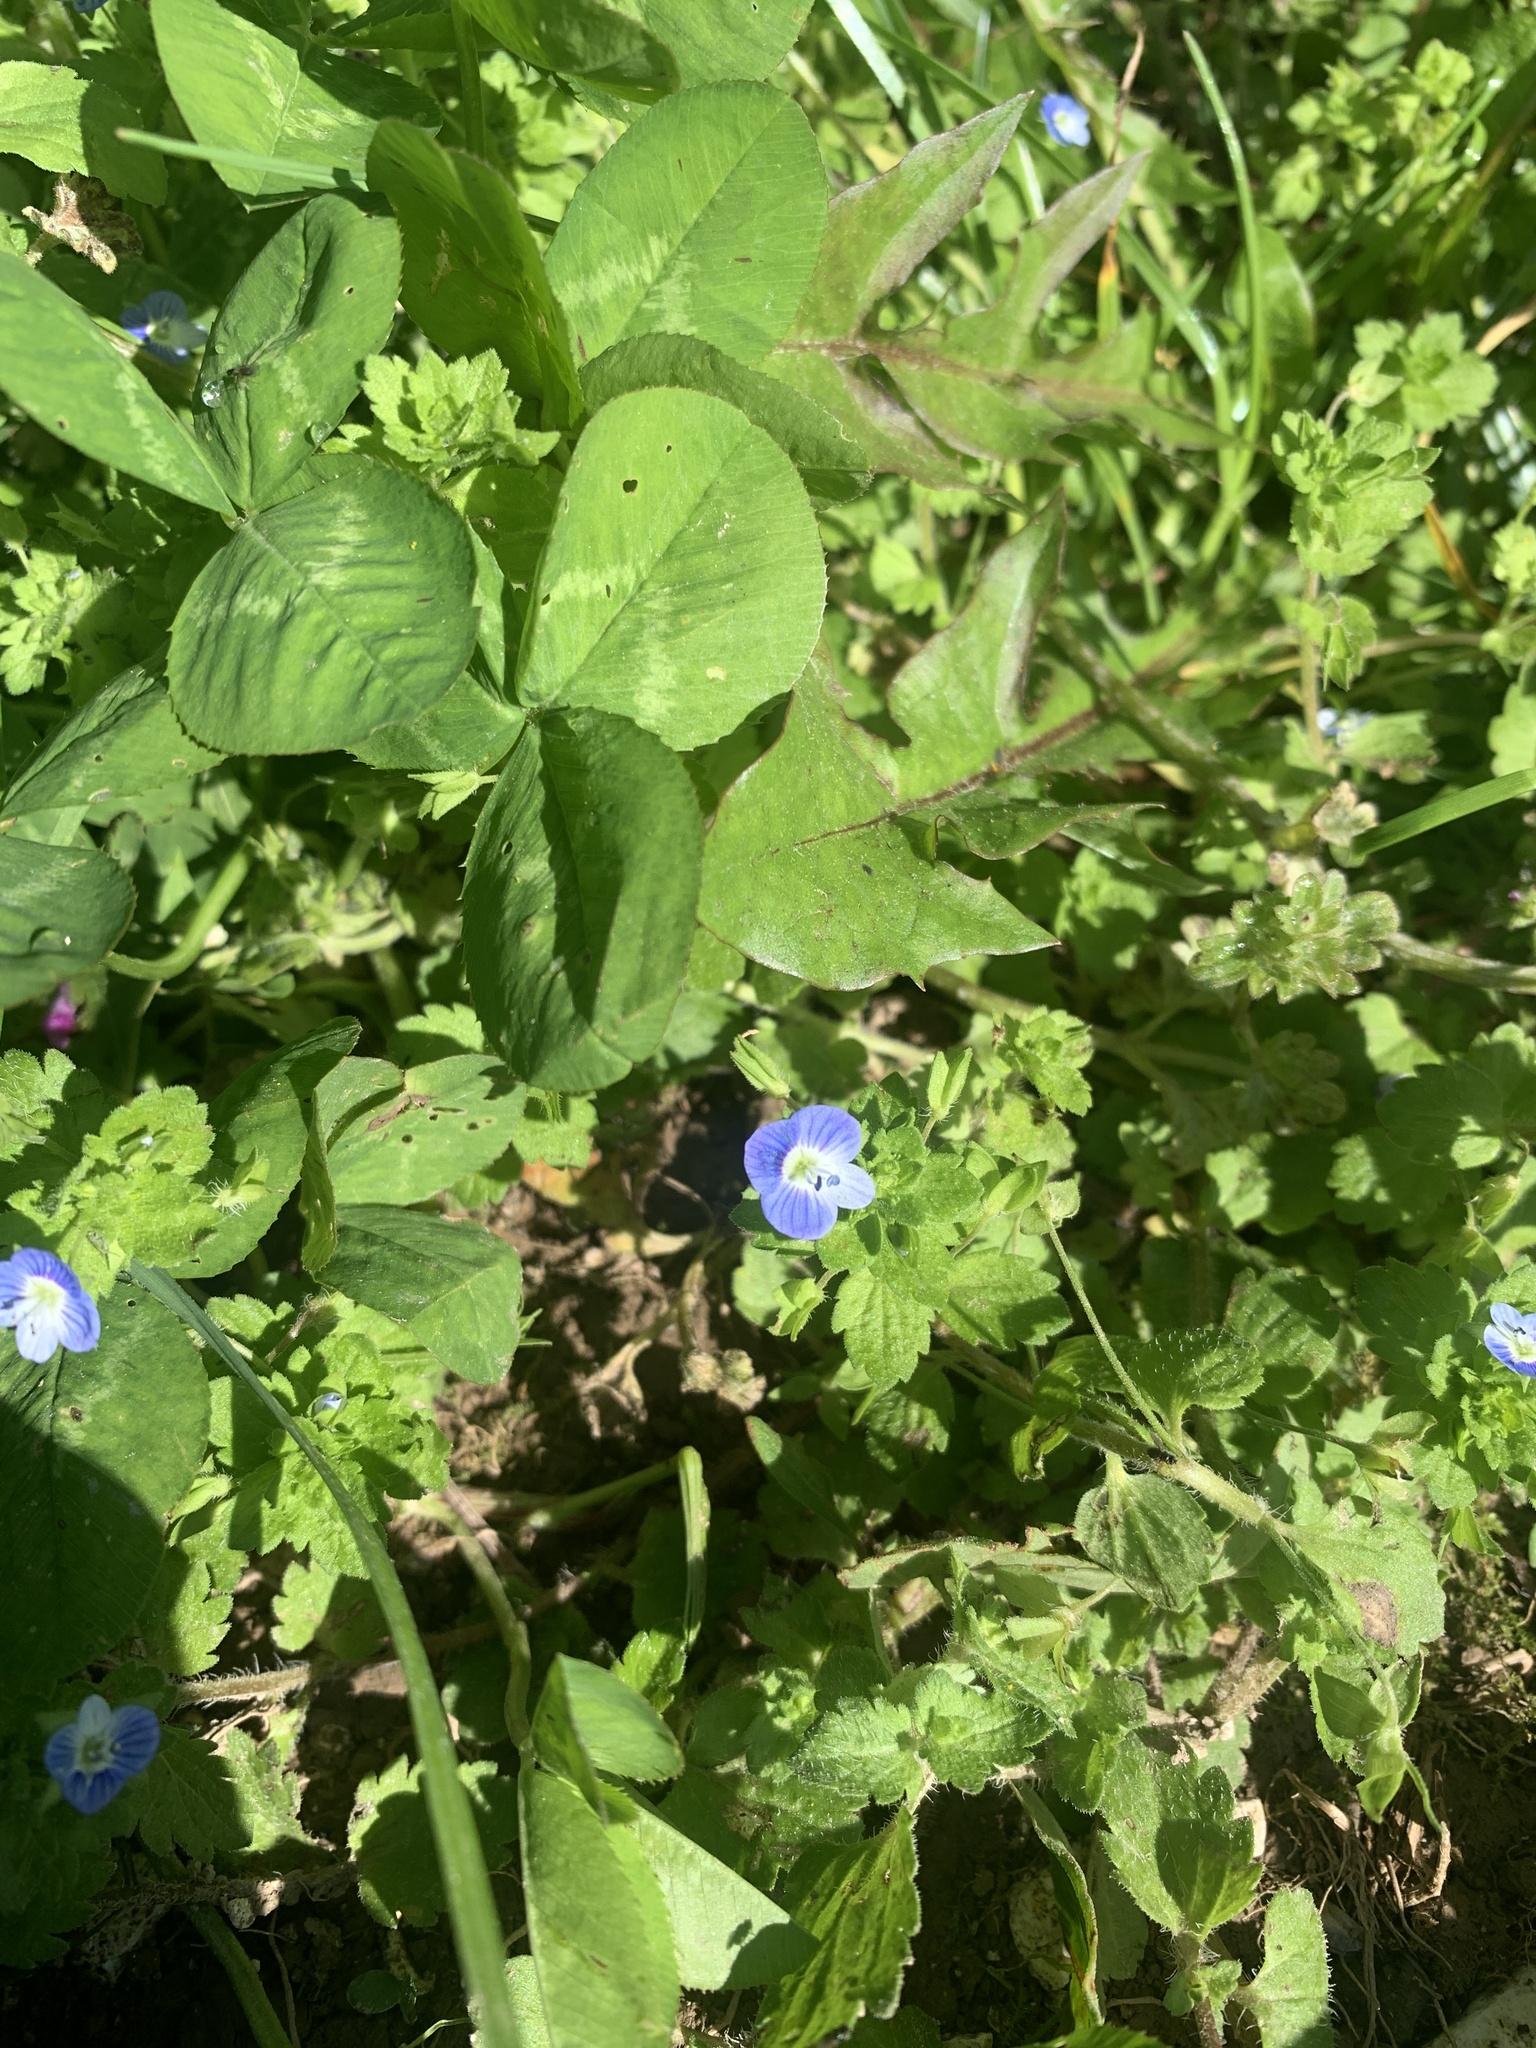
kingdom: Plantae
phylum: Tracheophyta
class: Magnoliopsida
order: Lamiales
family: Plantaginaceae
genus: Veronica
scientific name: Veronica persica
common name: Common field-speedwell
